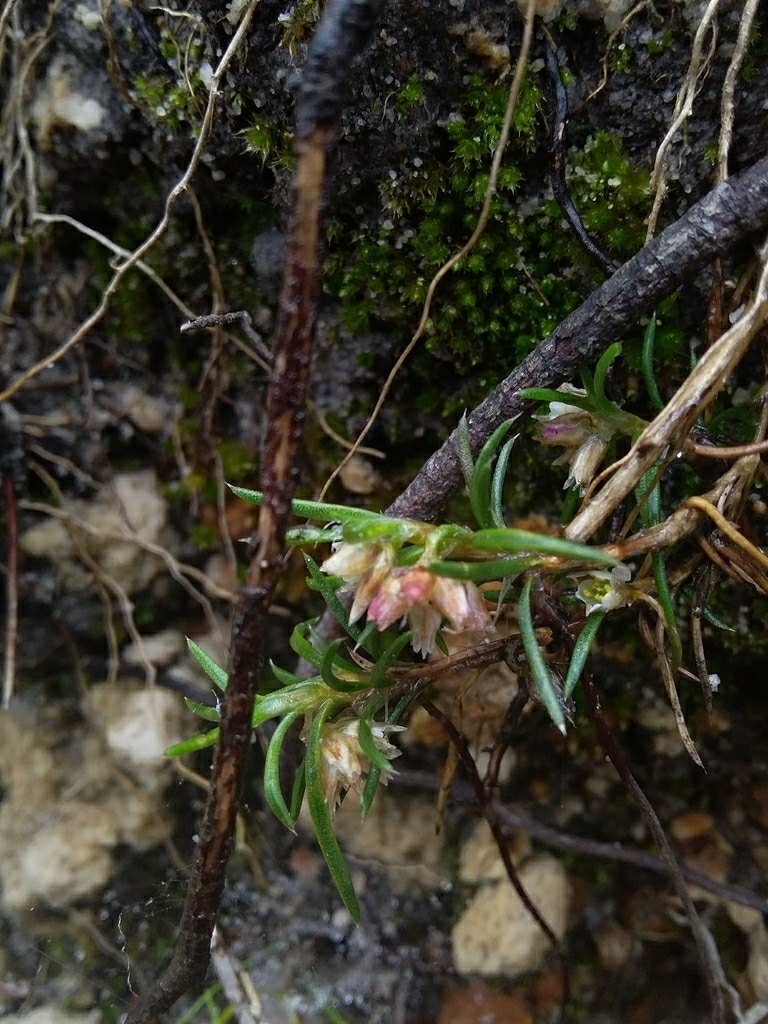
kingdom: Plantae
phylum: Tracheophyta
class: Liliopsida
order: Asparagales
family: Asparagaceae
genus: Laxmannia
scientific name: Laxmannia orientalis
